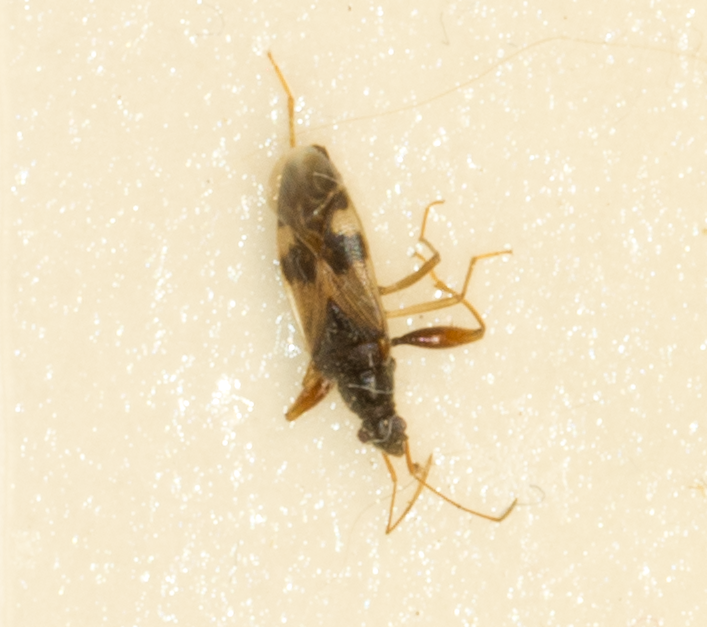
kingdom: Animalia
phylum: Arthropoda
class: Insecta
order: Hemiptera
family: Rhyparochromidae
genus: Pseudopamera
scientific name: Pseudopamera nitidula
